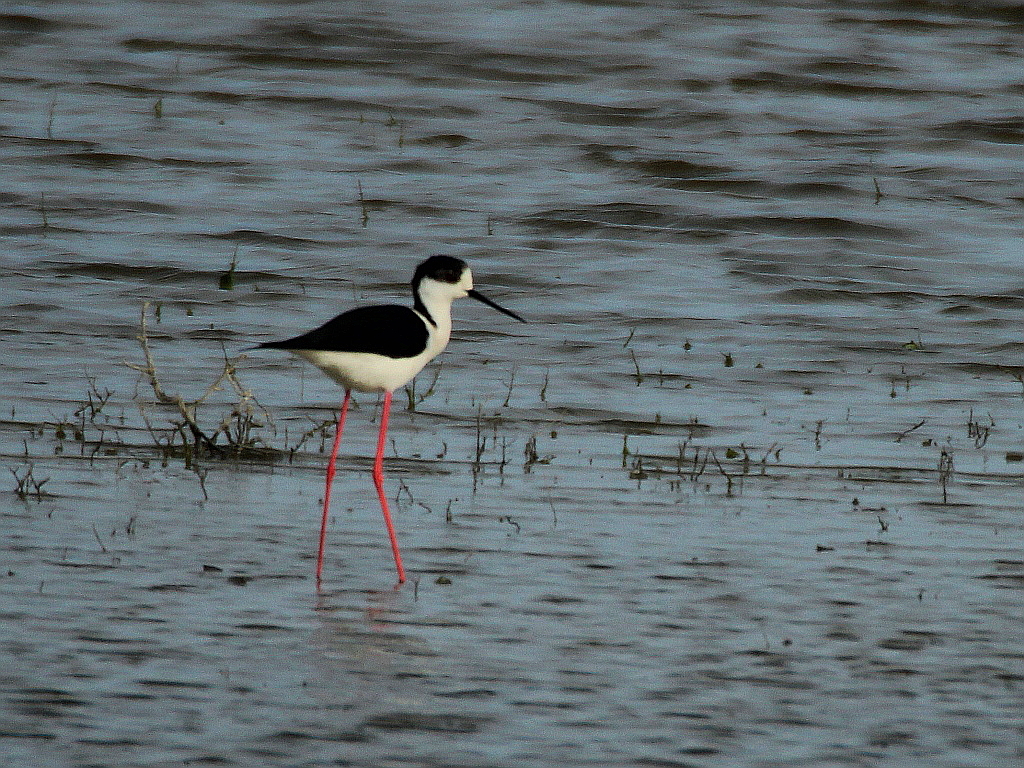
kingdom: Animalia
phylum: Chordata
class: Aves
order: Charadriiformes
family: Recurvirostridae
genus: Himantopus
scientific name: Himantopus himantopus
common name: Black-winged stilt
